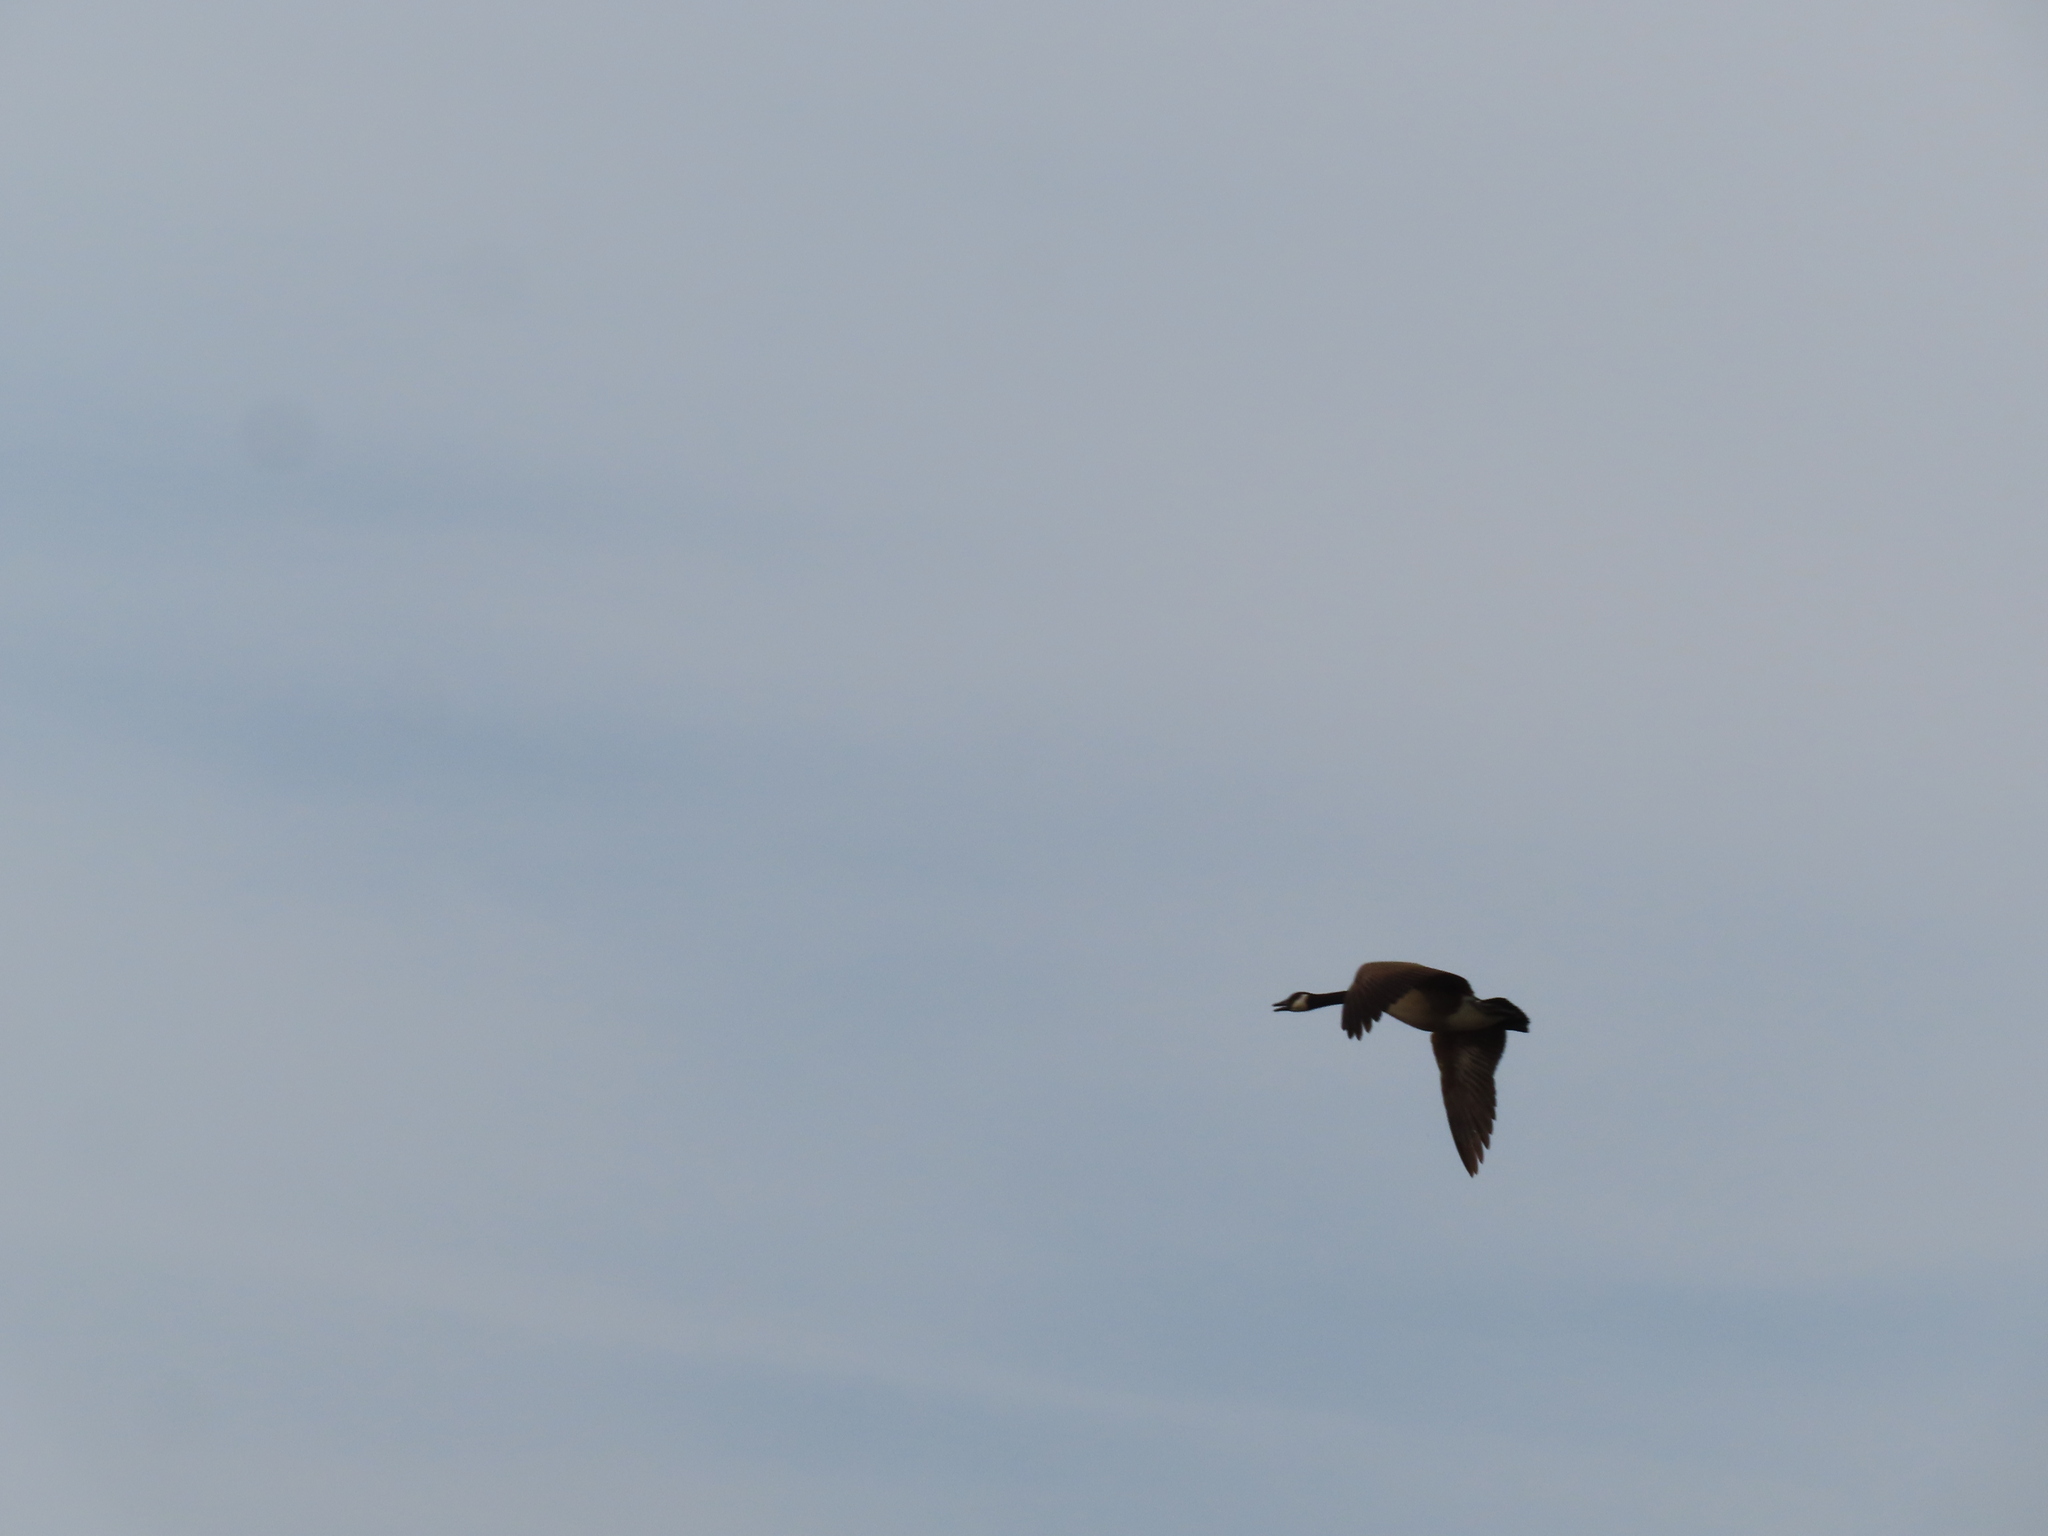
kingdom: Animalia
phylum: Chordata
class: Aves
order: Anseriformes
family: Anatidae
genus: Branta
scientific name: Branta canadensis
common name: Canada goose
